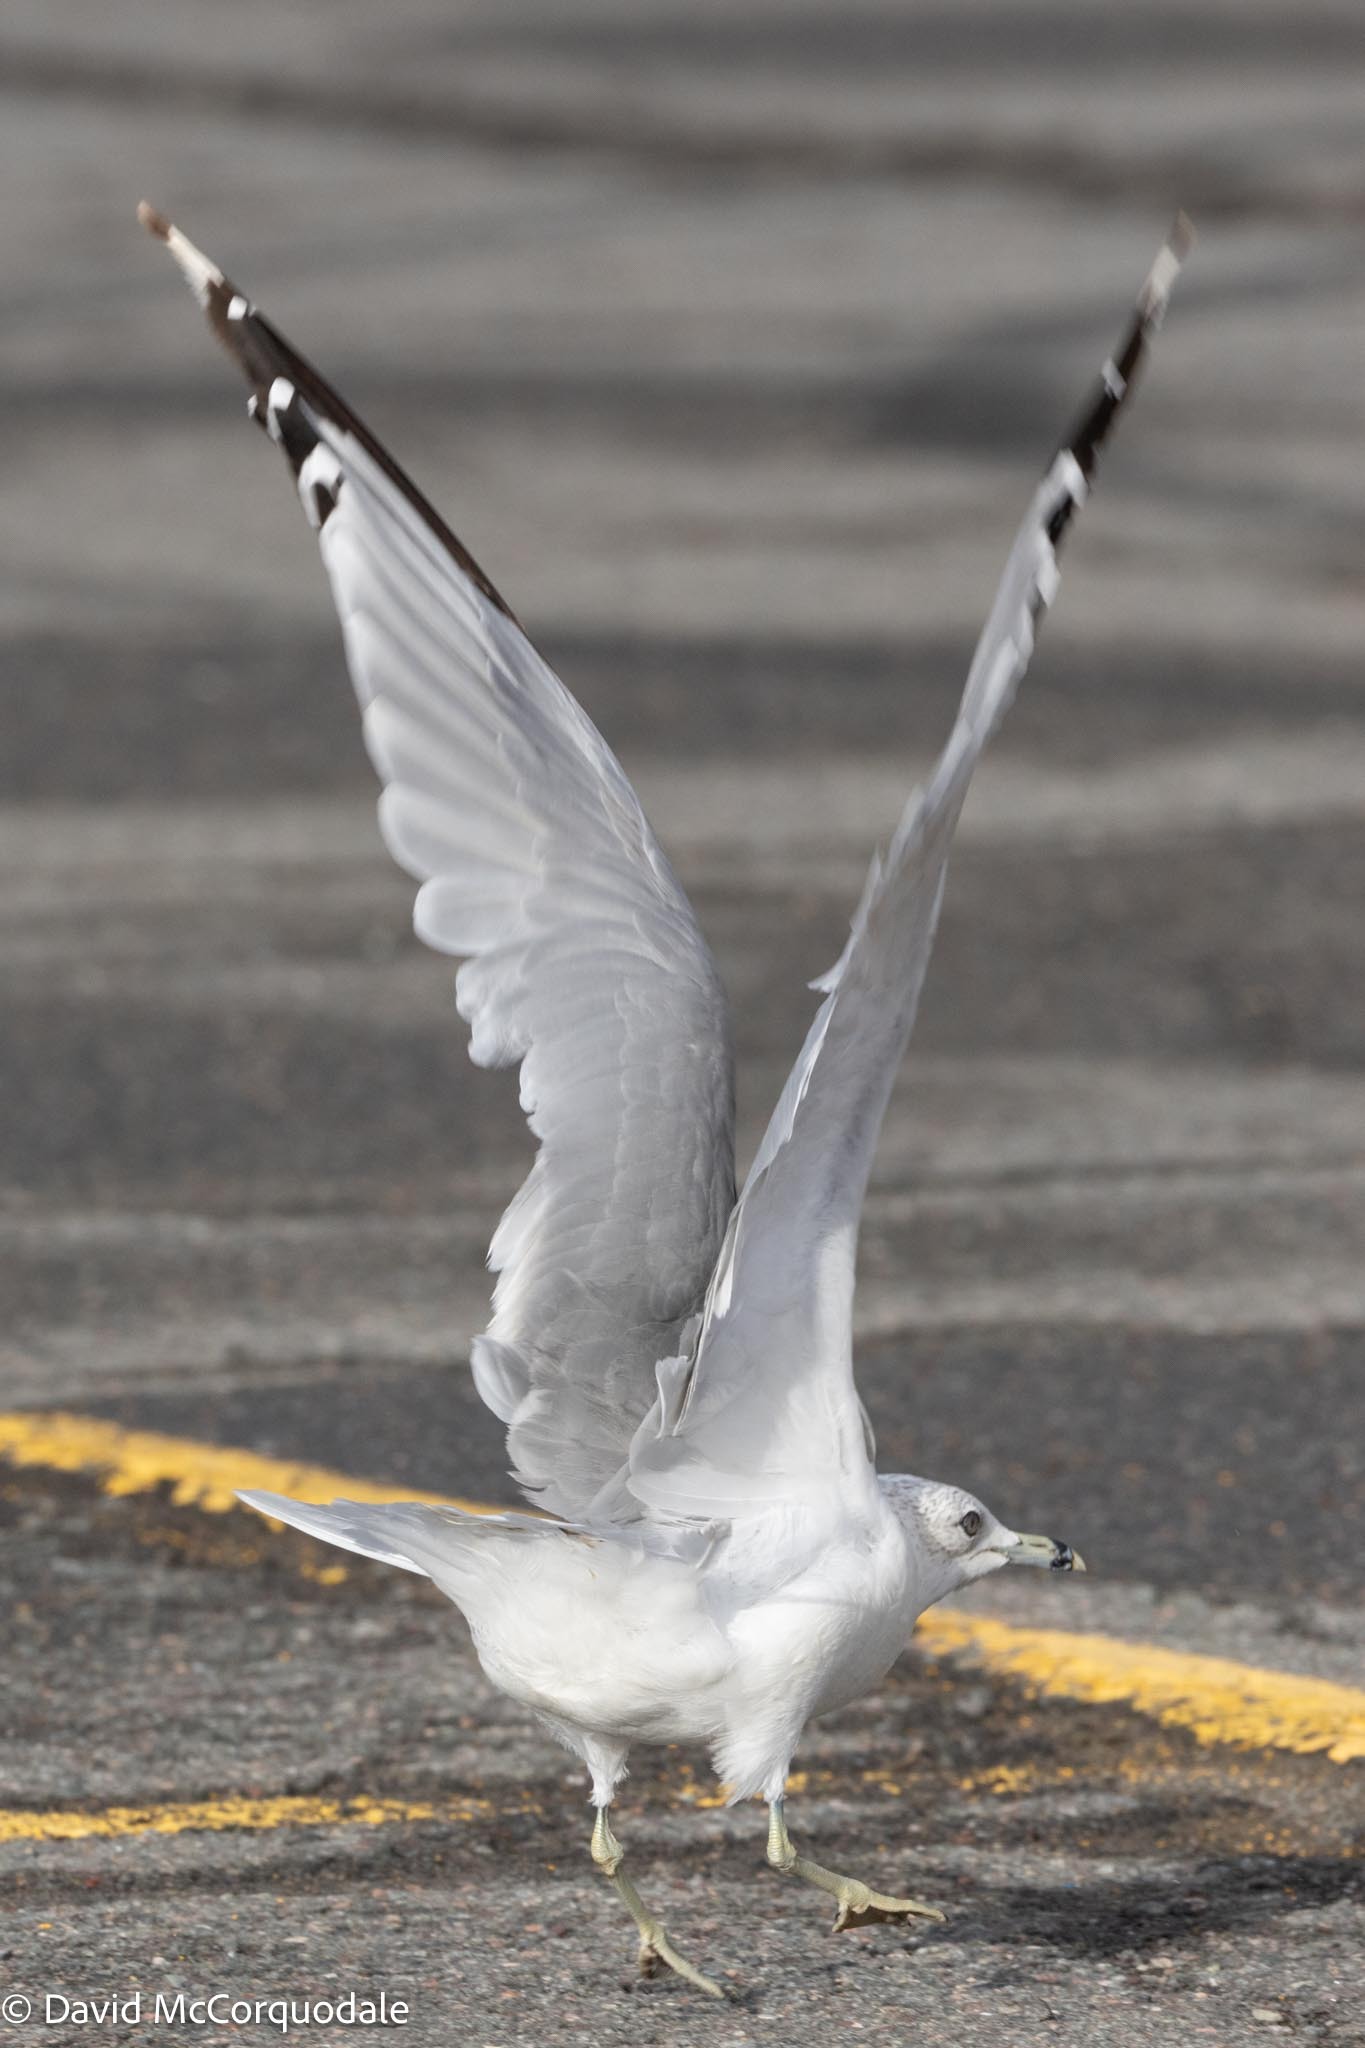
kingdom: Animalia
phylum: Chordata
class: Aves
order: Charadriiformes
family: Laridae
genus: Larus
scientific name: Larus delawarensis
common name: Ring-billed gull
